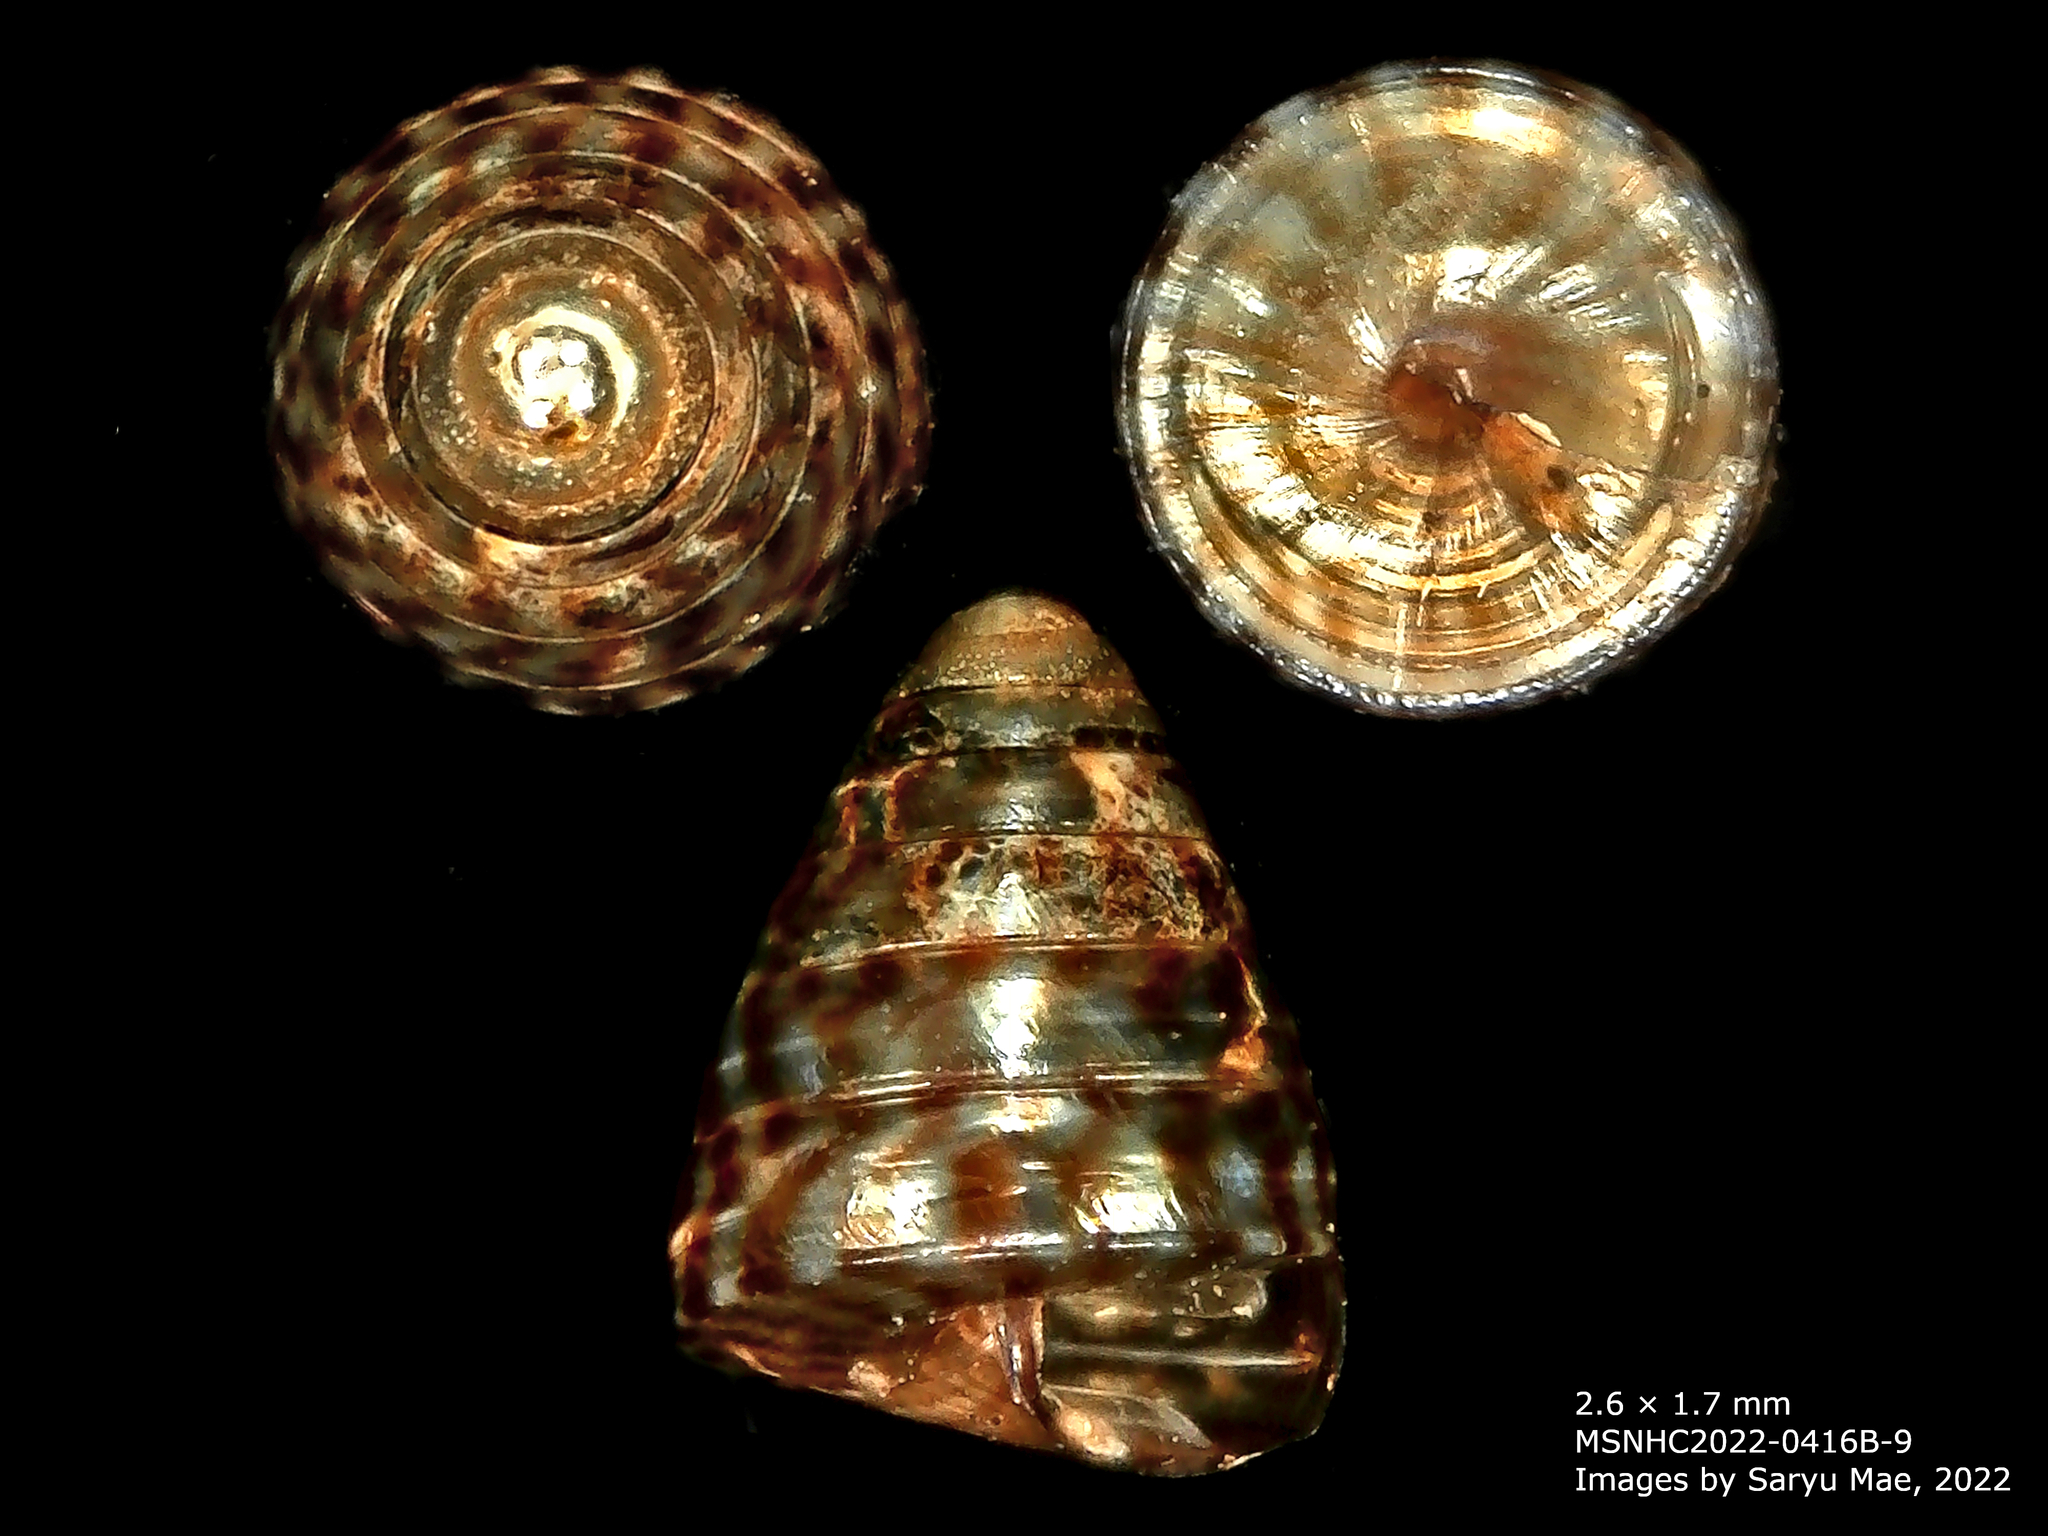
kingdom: Animalia
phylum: Mollusca
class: Gastropoda
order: Stylommatophora
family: Punctidae
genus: Laoma
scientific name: Laoma leimonias
